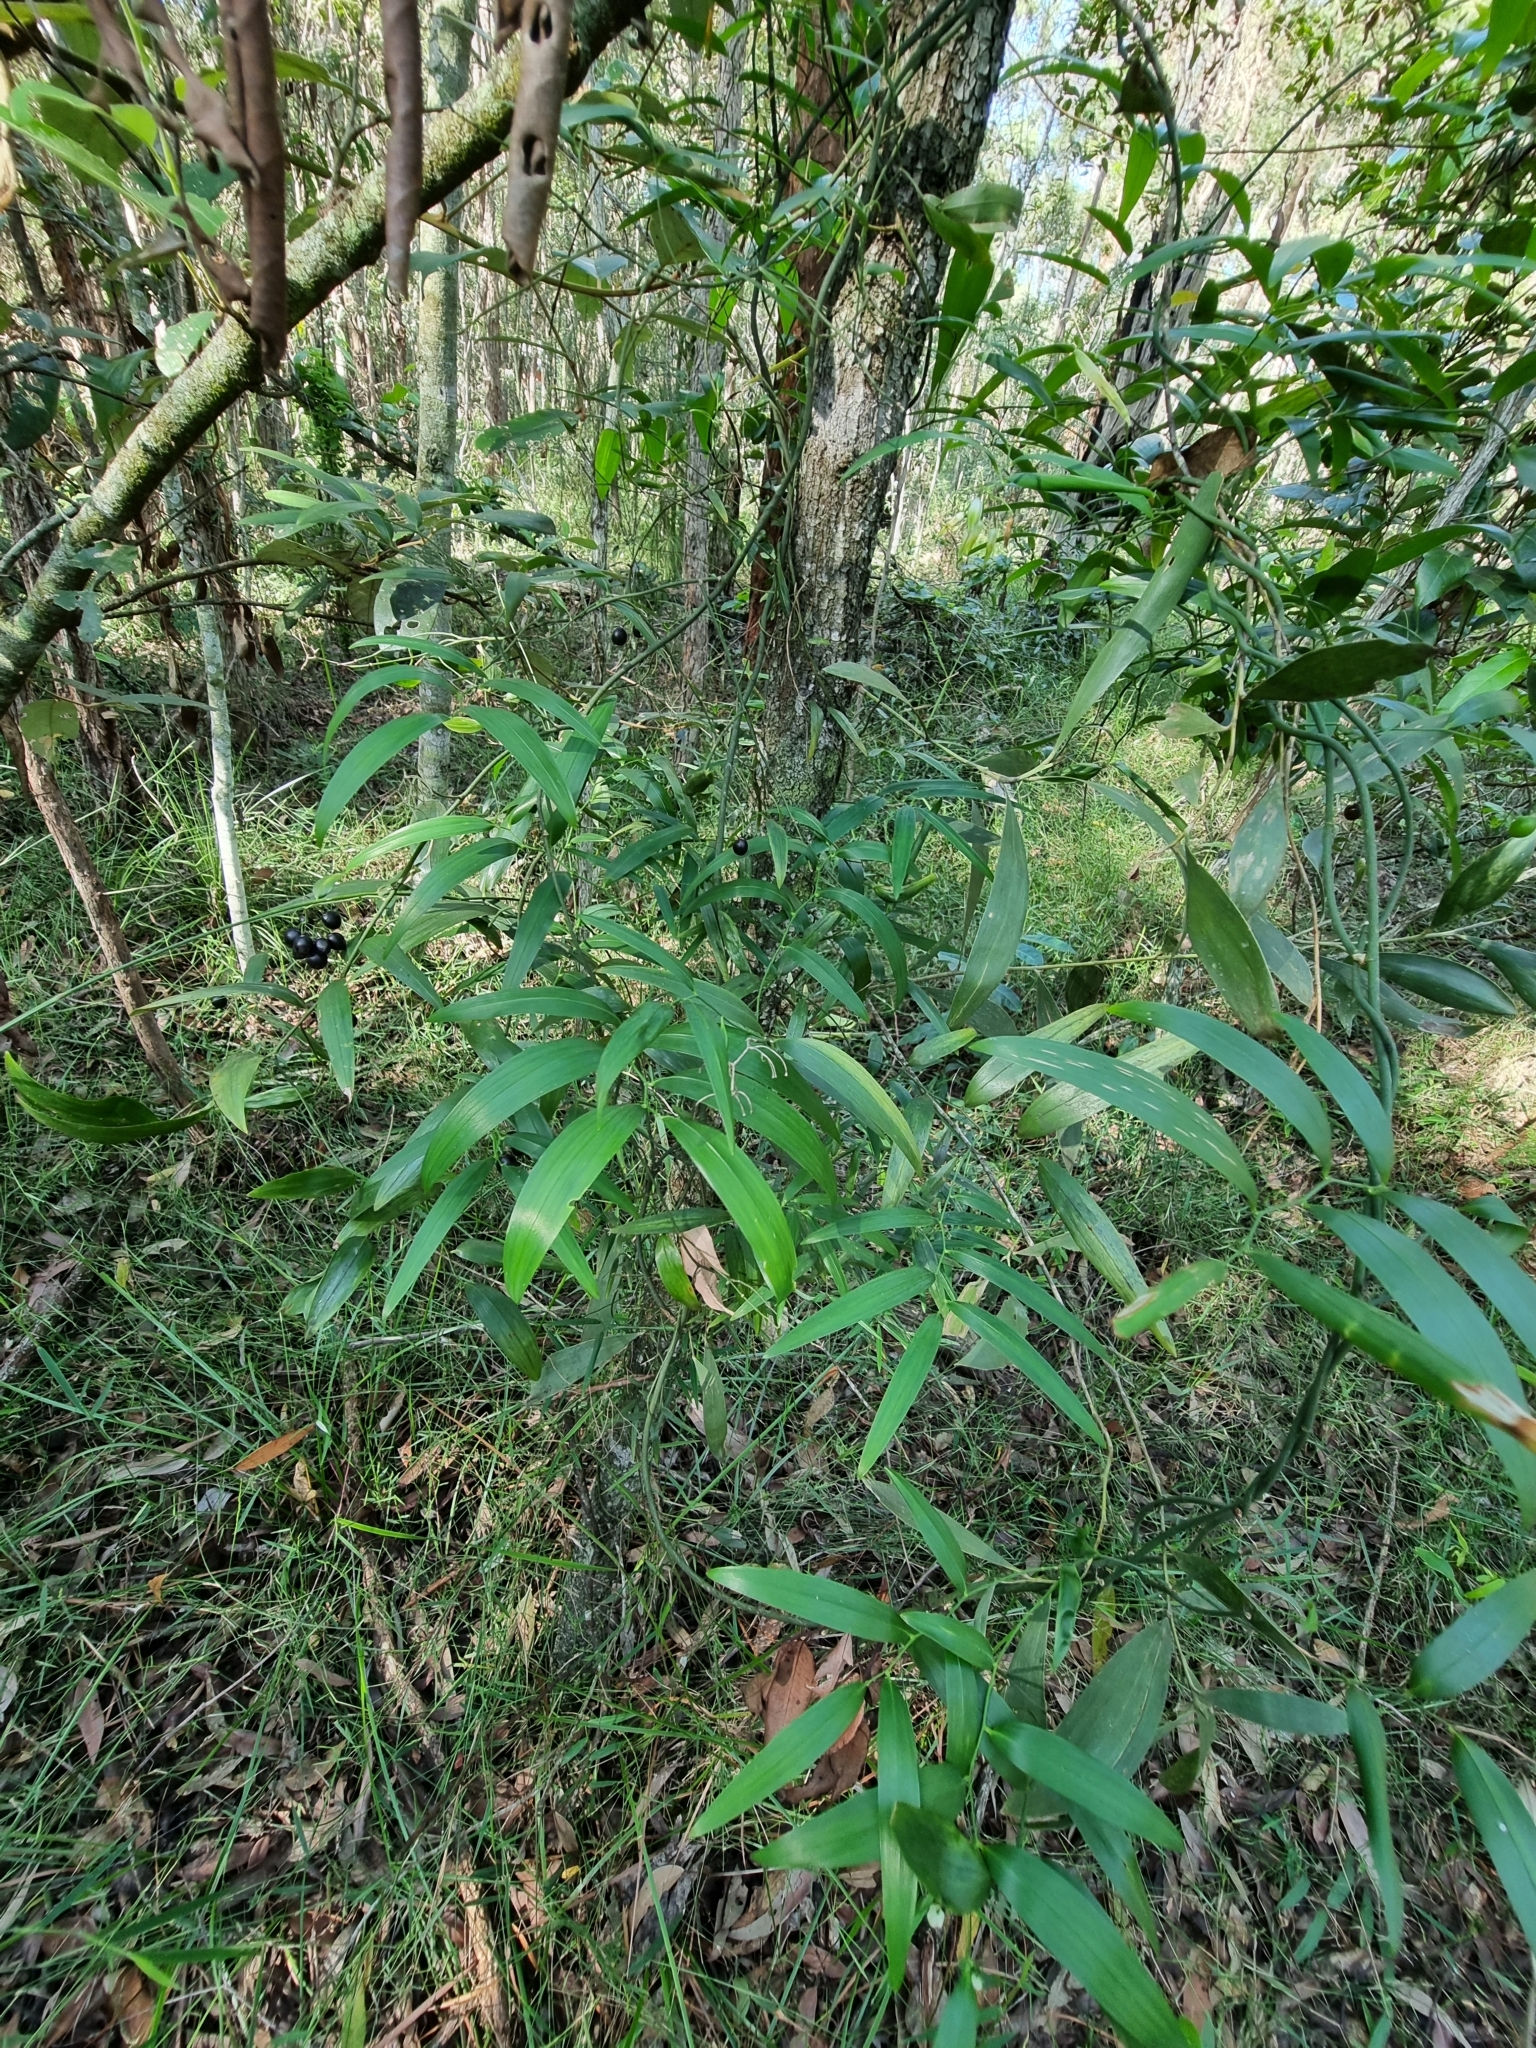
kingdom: Plantae
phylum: Tracheophyta
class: Liliopsida
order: Asparagales
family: Asphodelaceae
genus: Geitonoplesium
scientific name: Geitonoplesium cymosum
